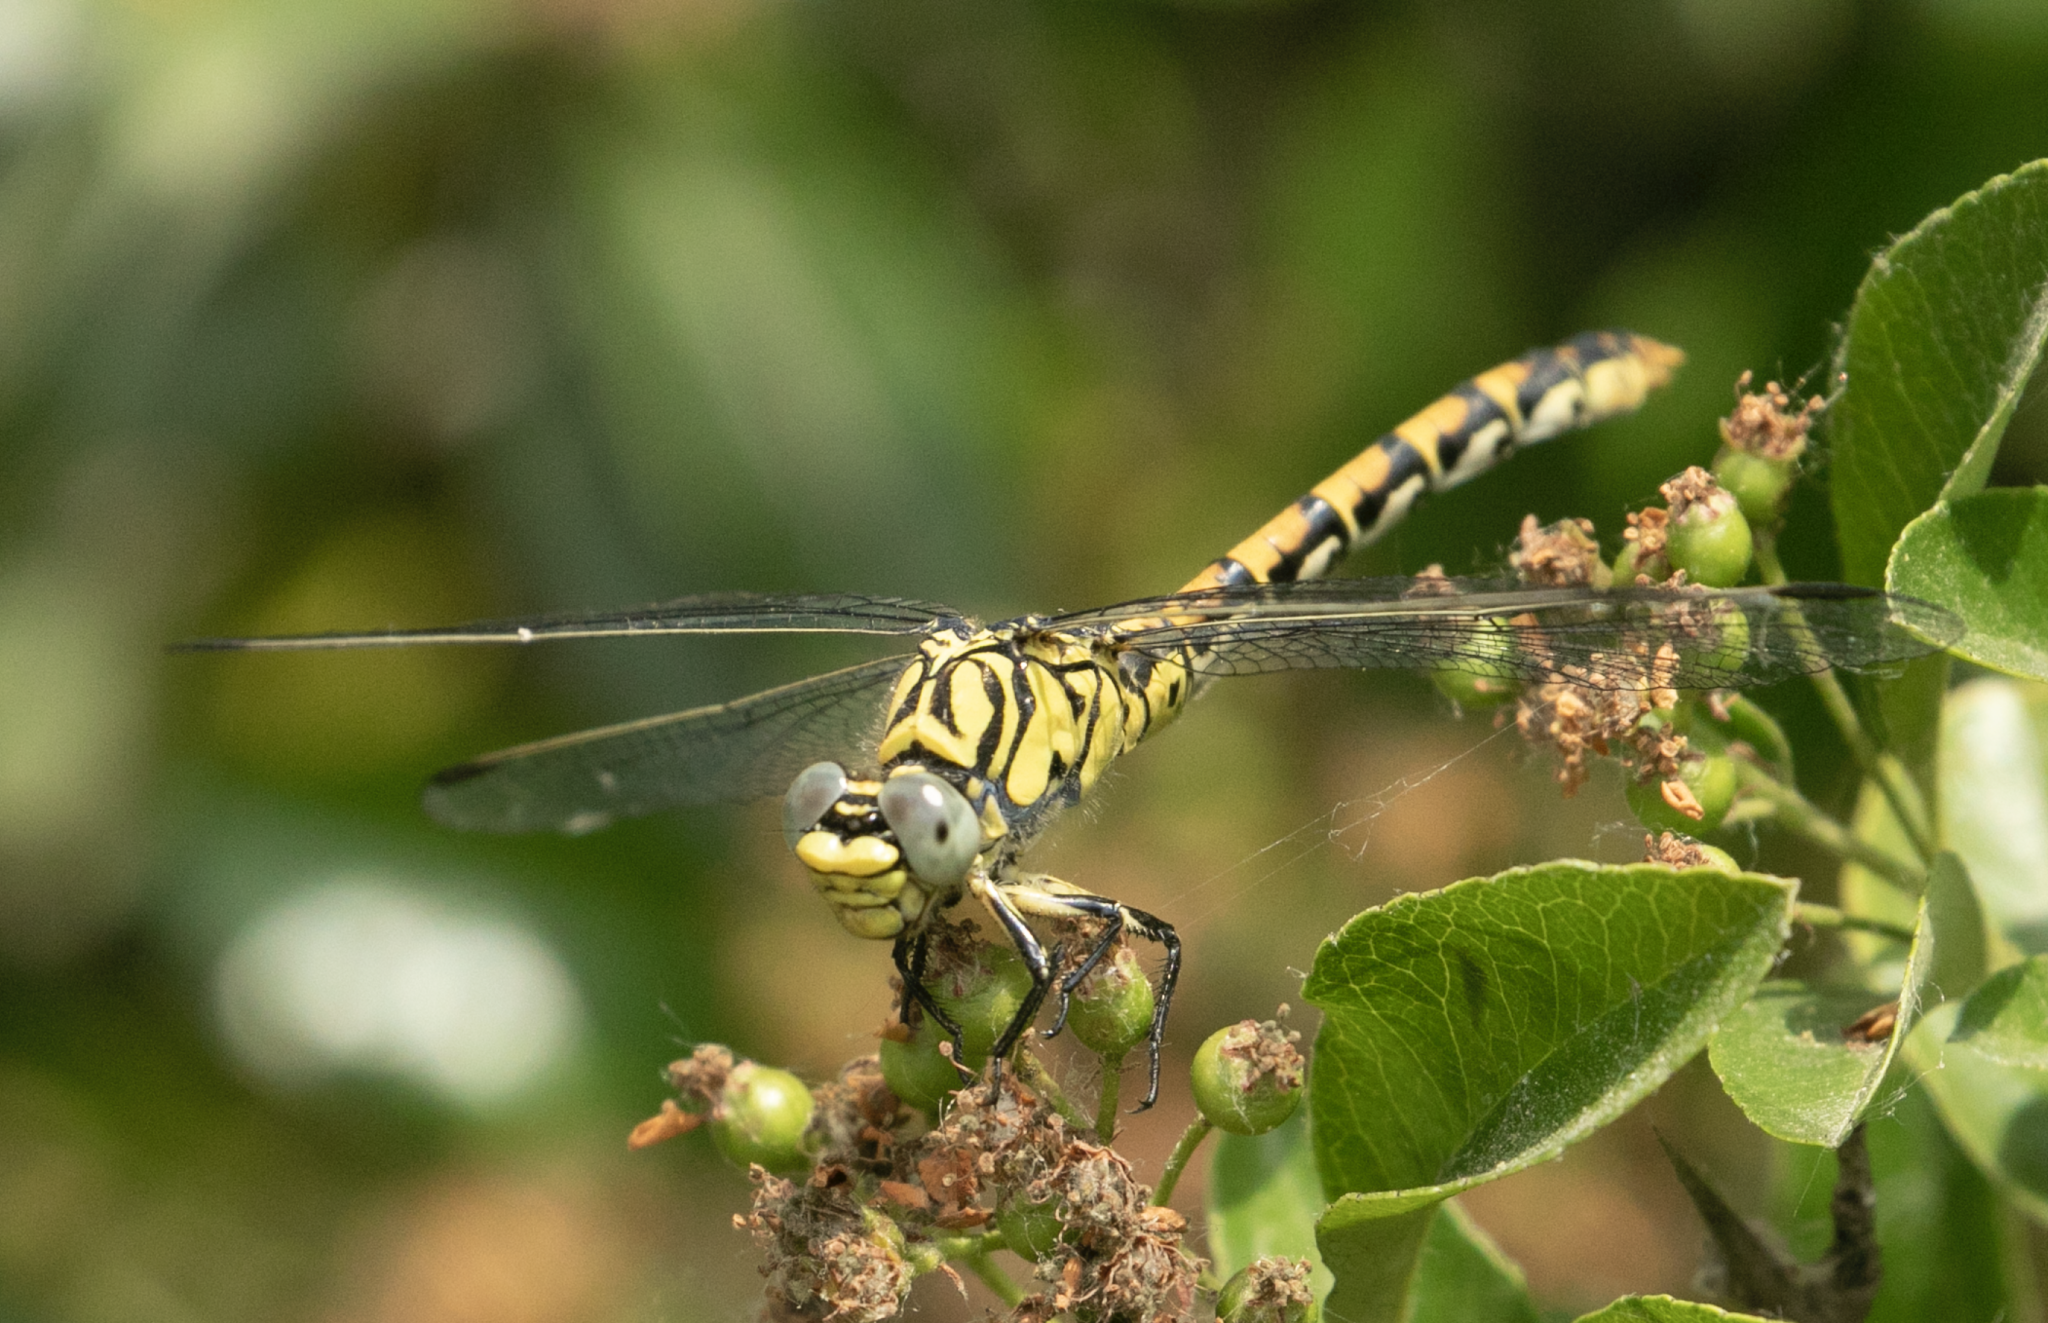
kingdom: Animalia
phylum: Arthropoda
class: Insecta
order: Odonata
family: Gomphidae
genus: Onychogomphus
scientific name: Onychogomphus forcipatus
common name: Small pincertail
